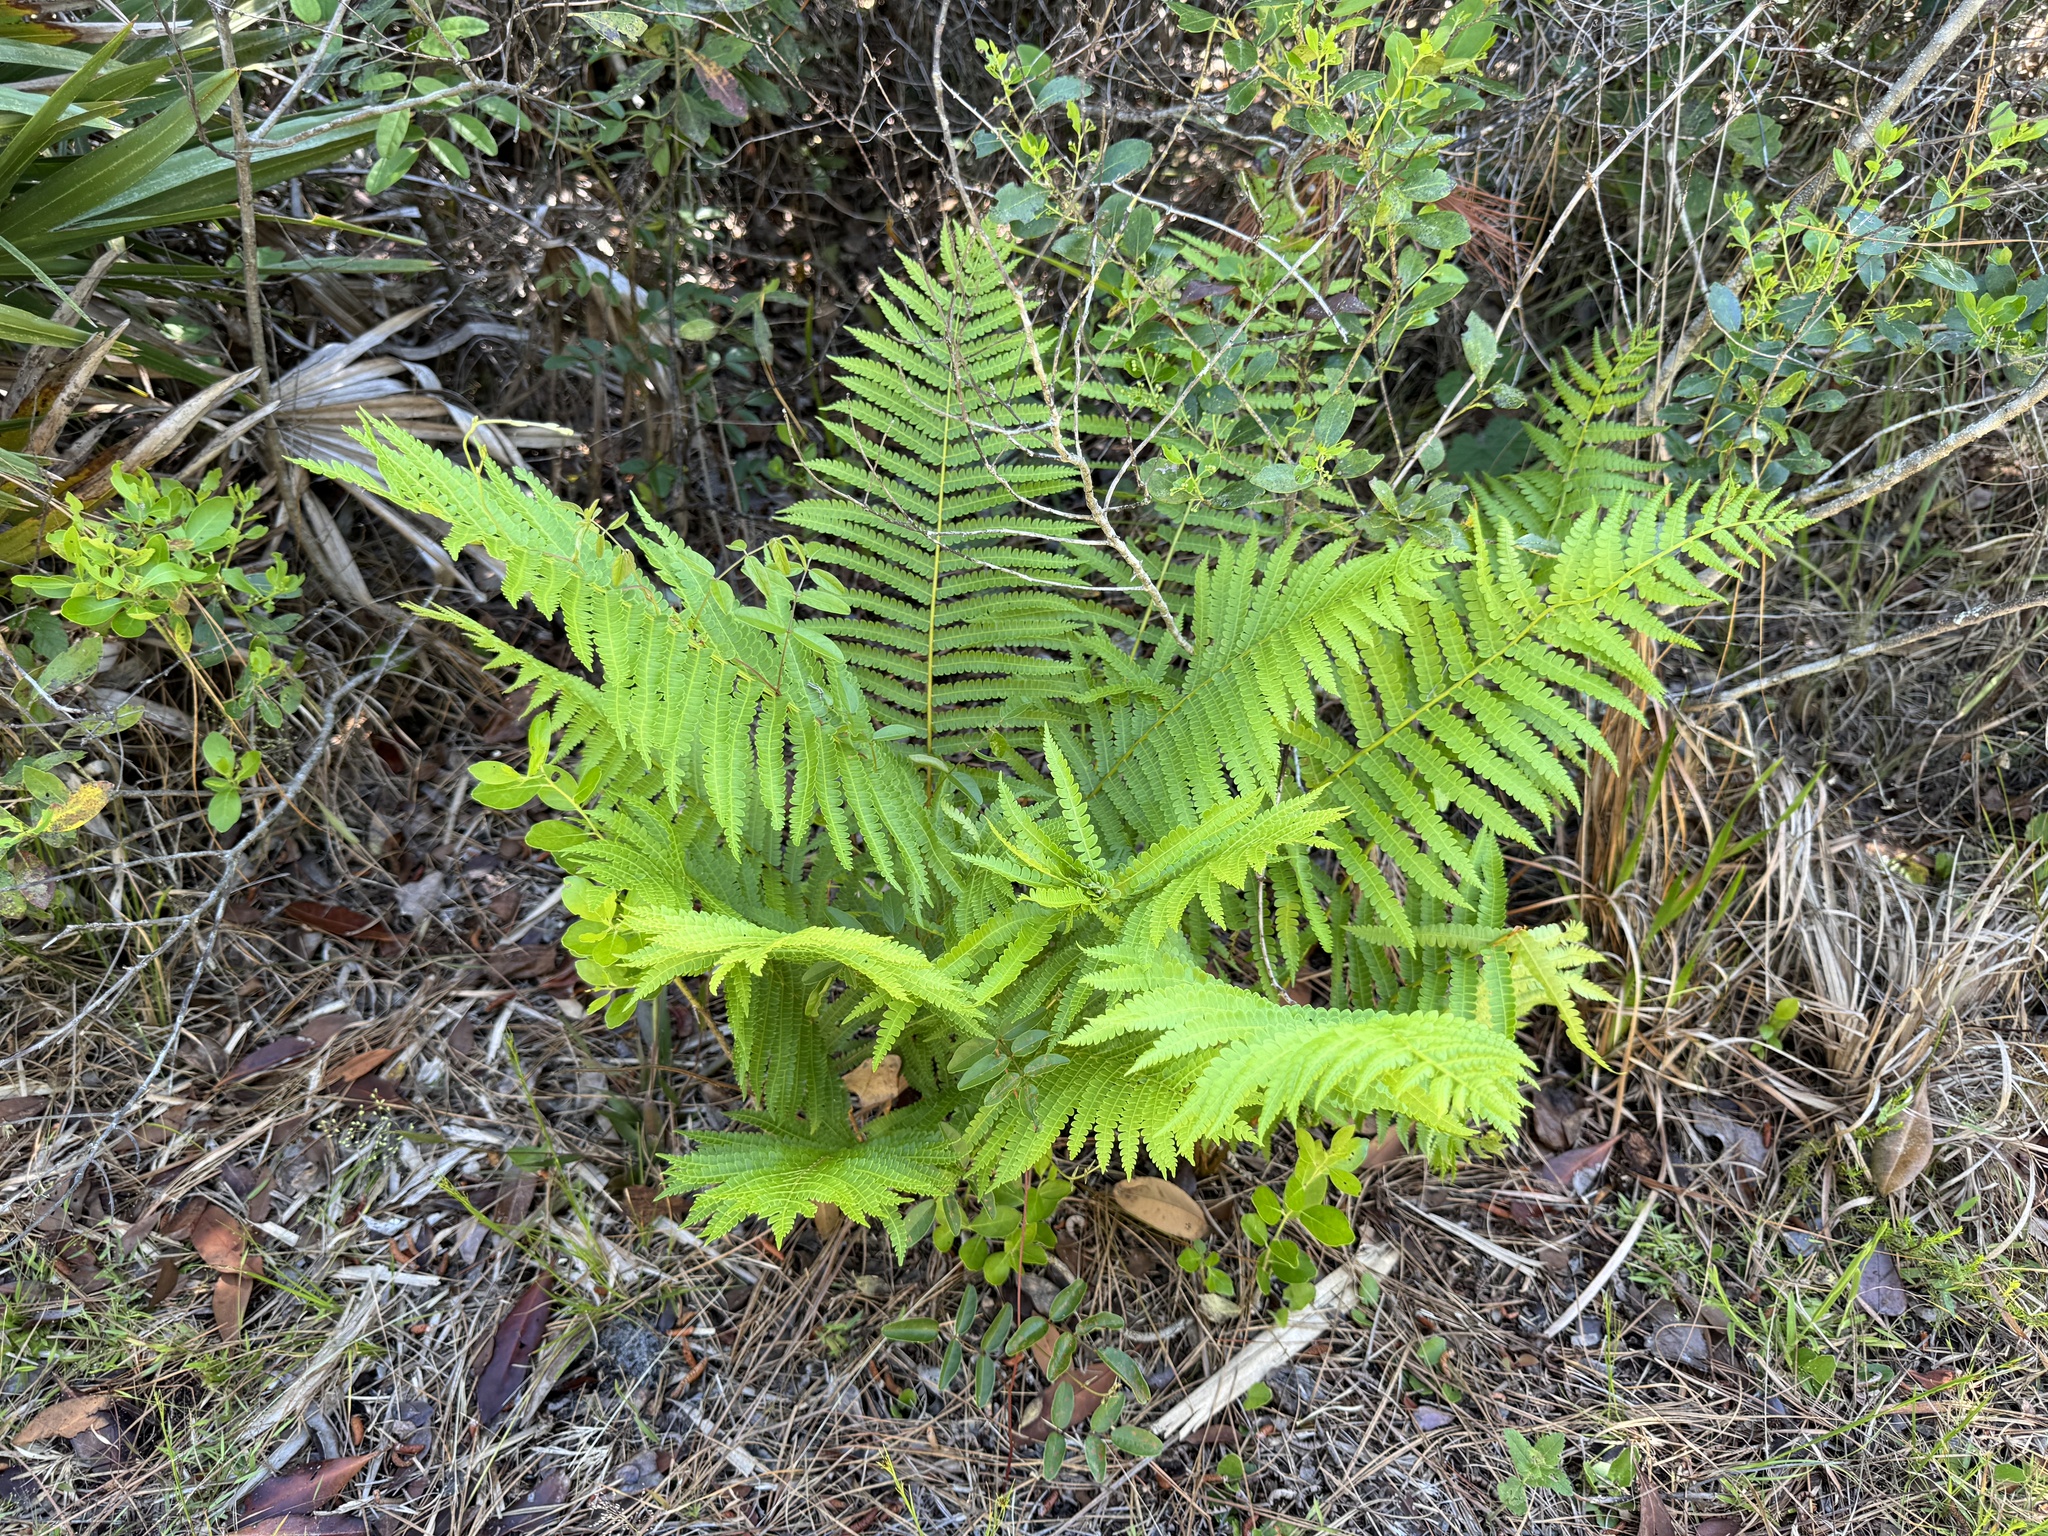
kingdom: Plantae
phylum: Tracheophyta
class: Polypodiopsida
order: Osmundales
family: Osmundaceae
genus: Osmundastrum
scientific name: Osmundastrum cinnamomeum
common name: Cinnamon fern
